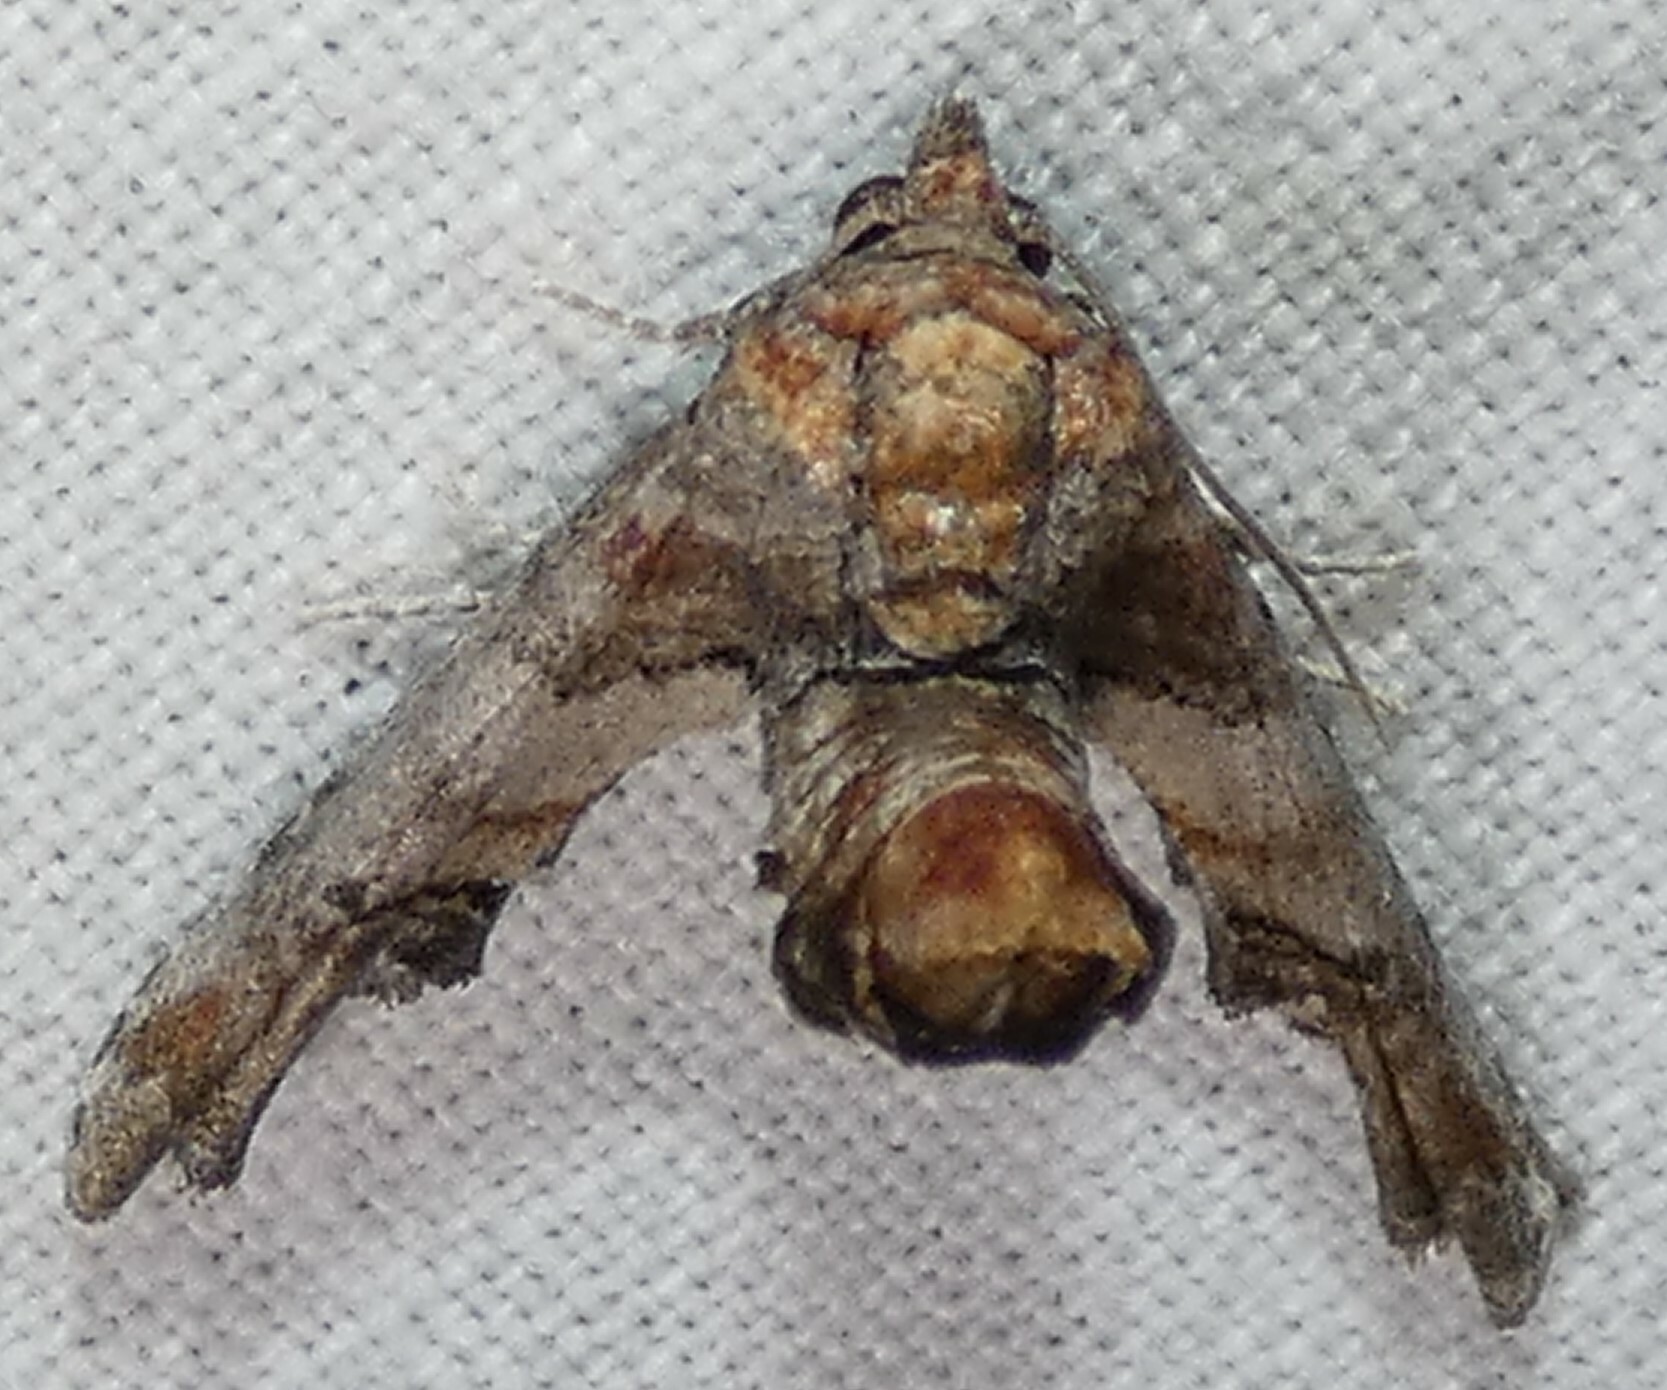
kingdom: Animalia
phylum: Arthropoda
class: Insecta
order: Lepidoptera
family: Euteliidae
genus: Marathyssa
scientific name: Marathyssa inficita
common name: Dark marathyssa moth
